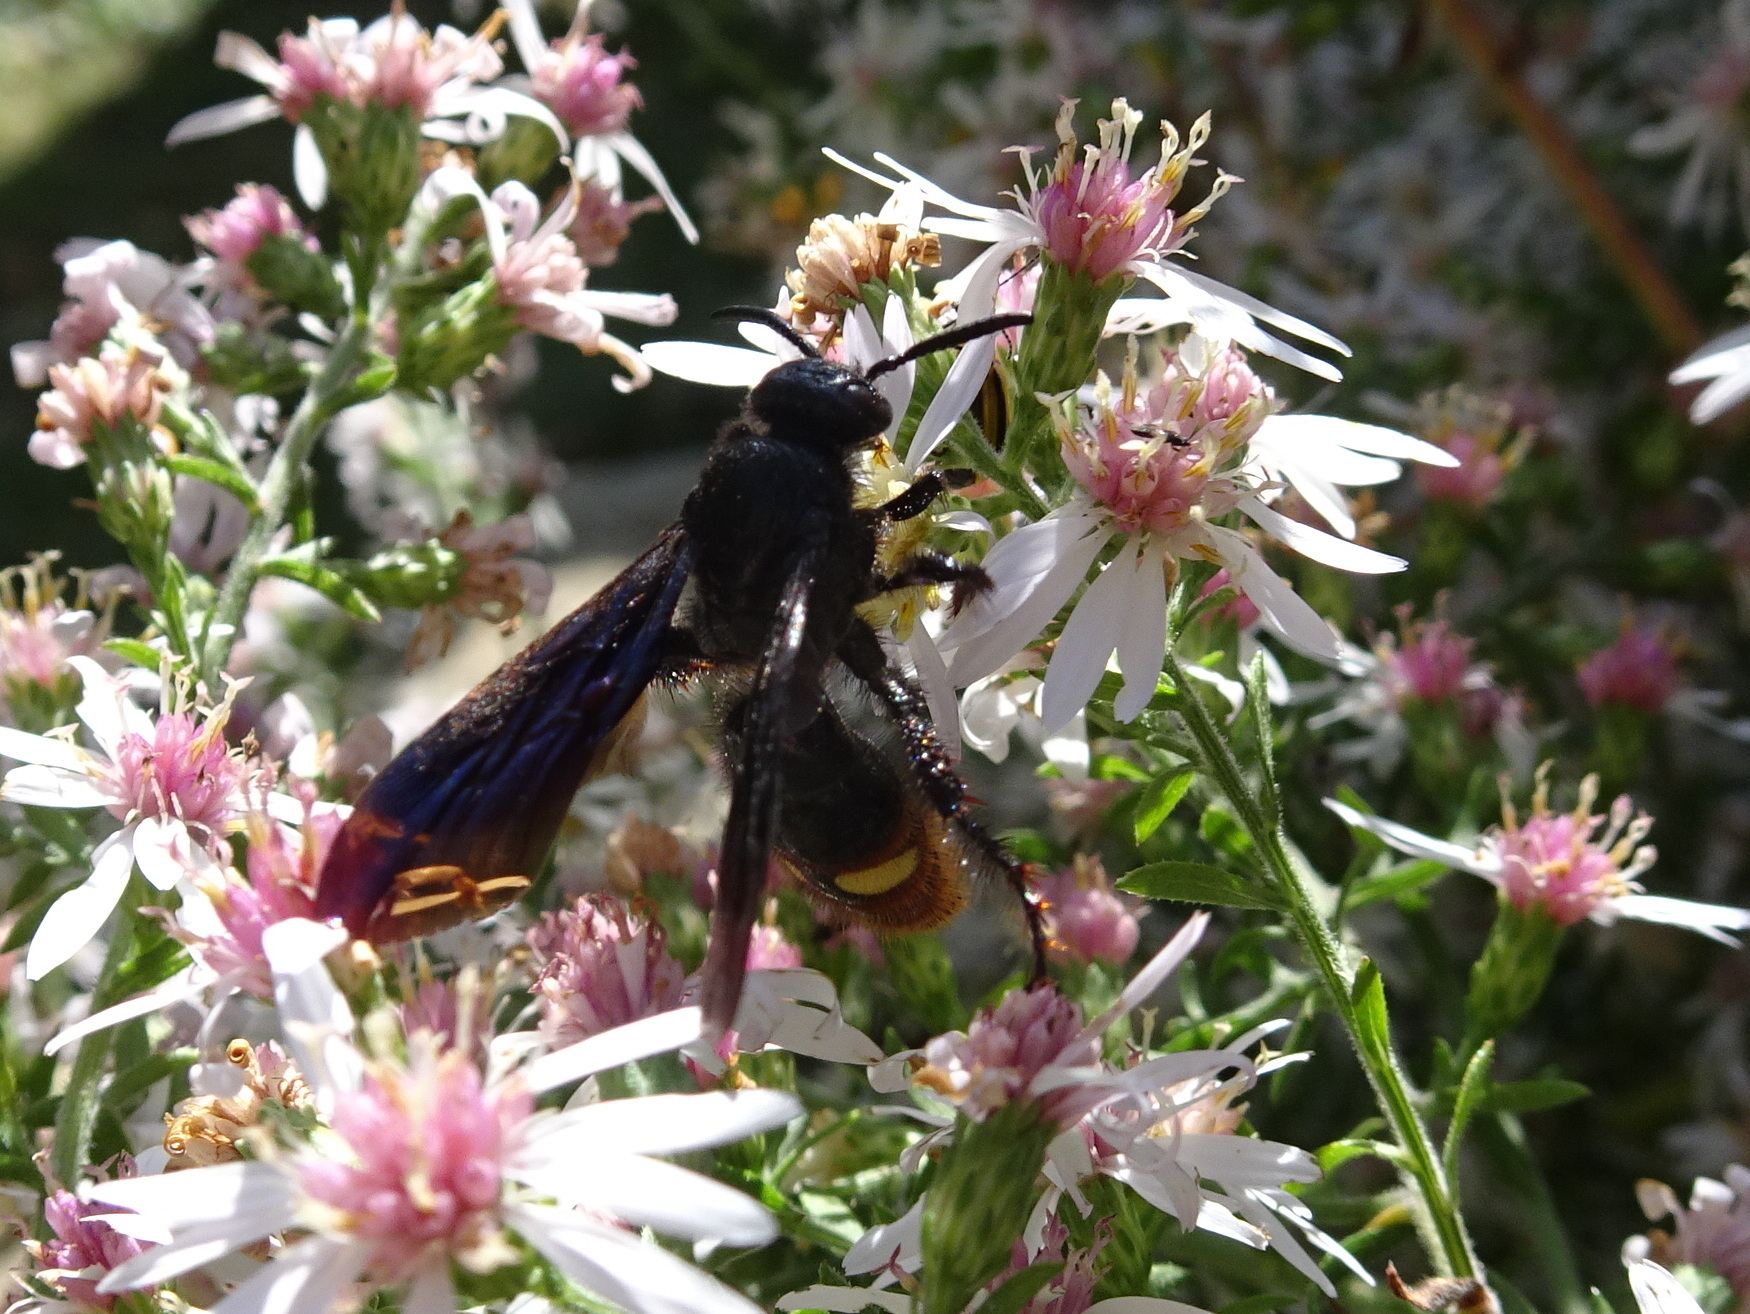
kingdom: Animalia
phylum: Arthropoda
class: Insecta
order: Hymenoptera
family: Scoliidae
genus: Scolia
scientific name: Scolia dubia
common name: Blue-winged scoliid wasp
